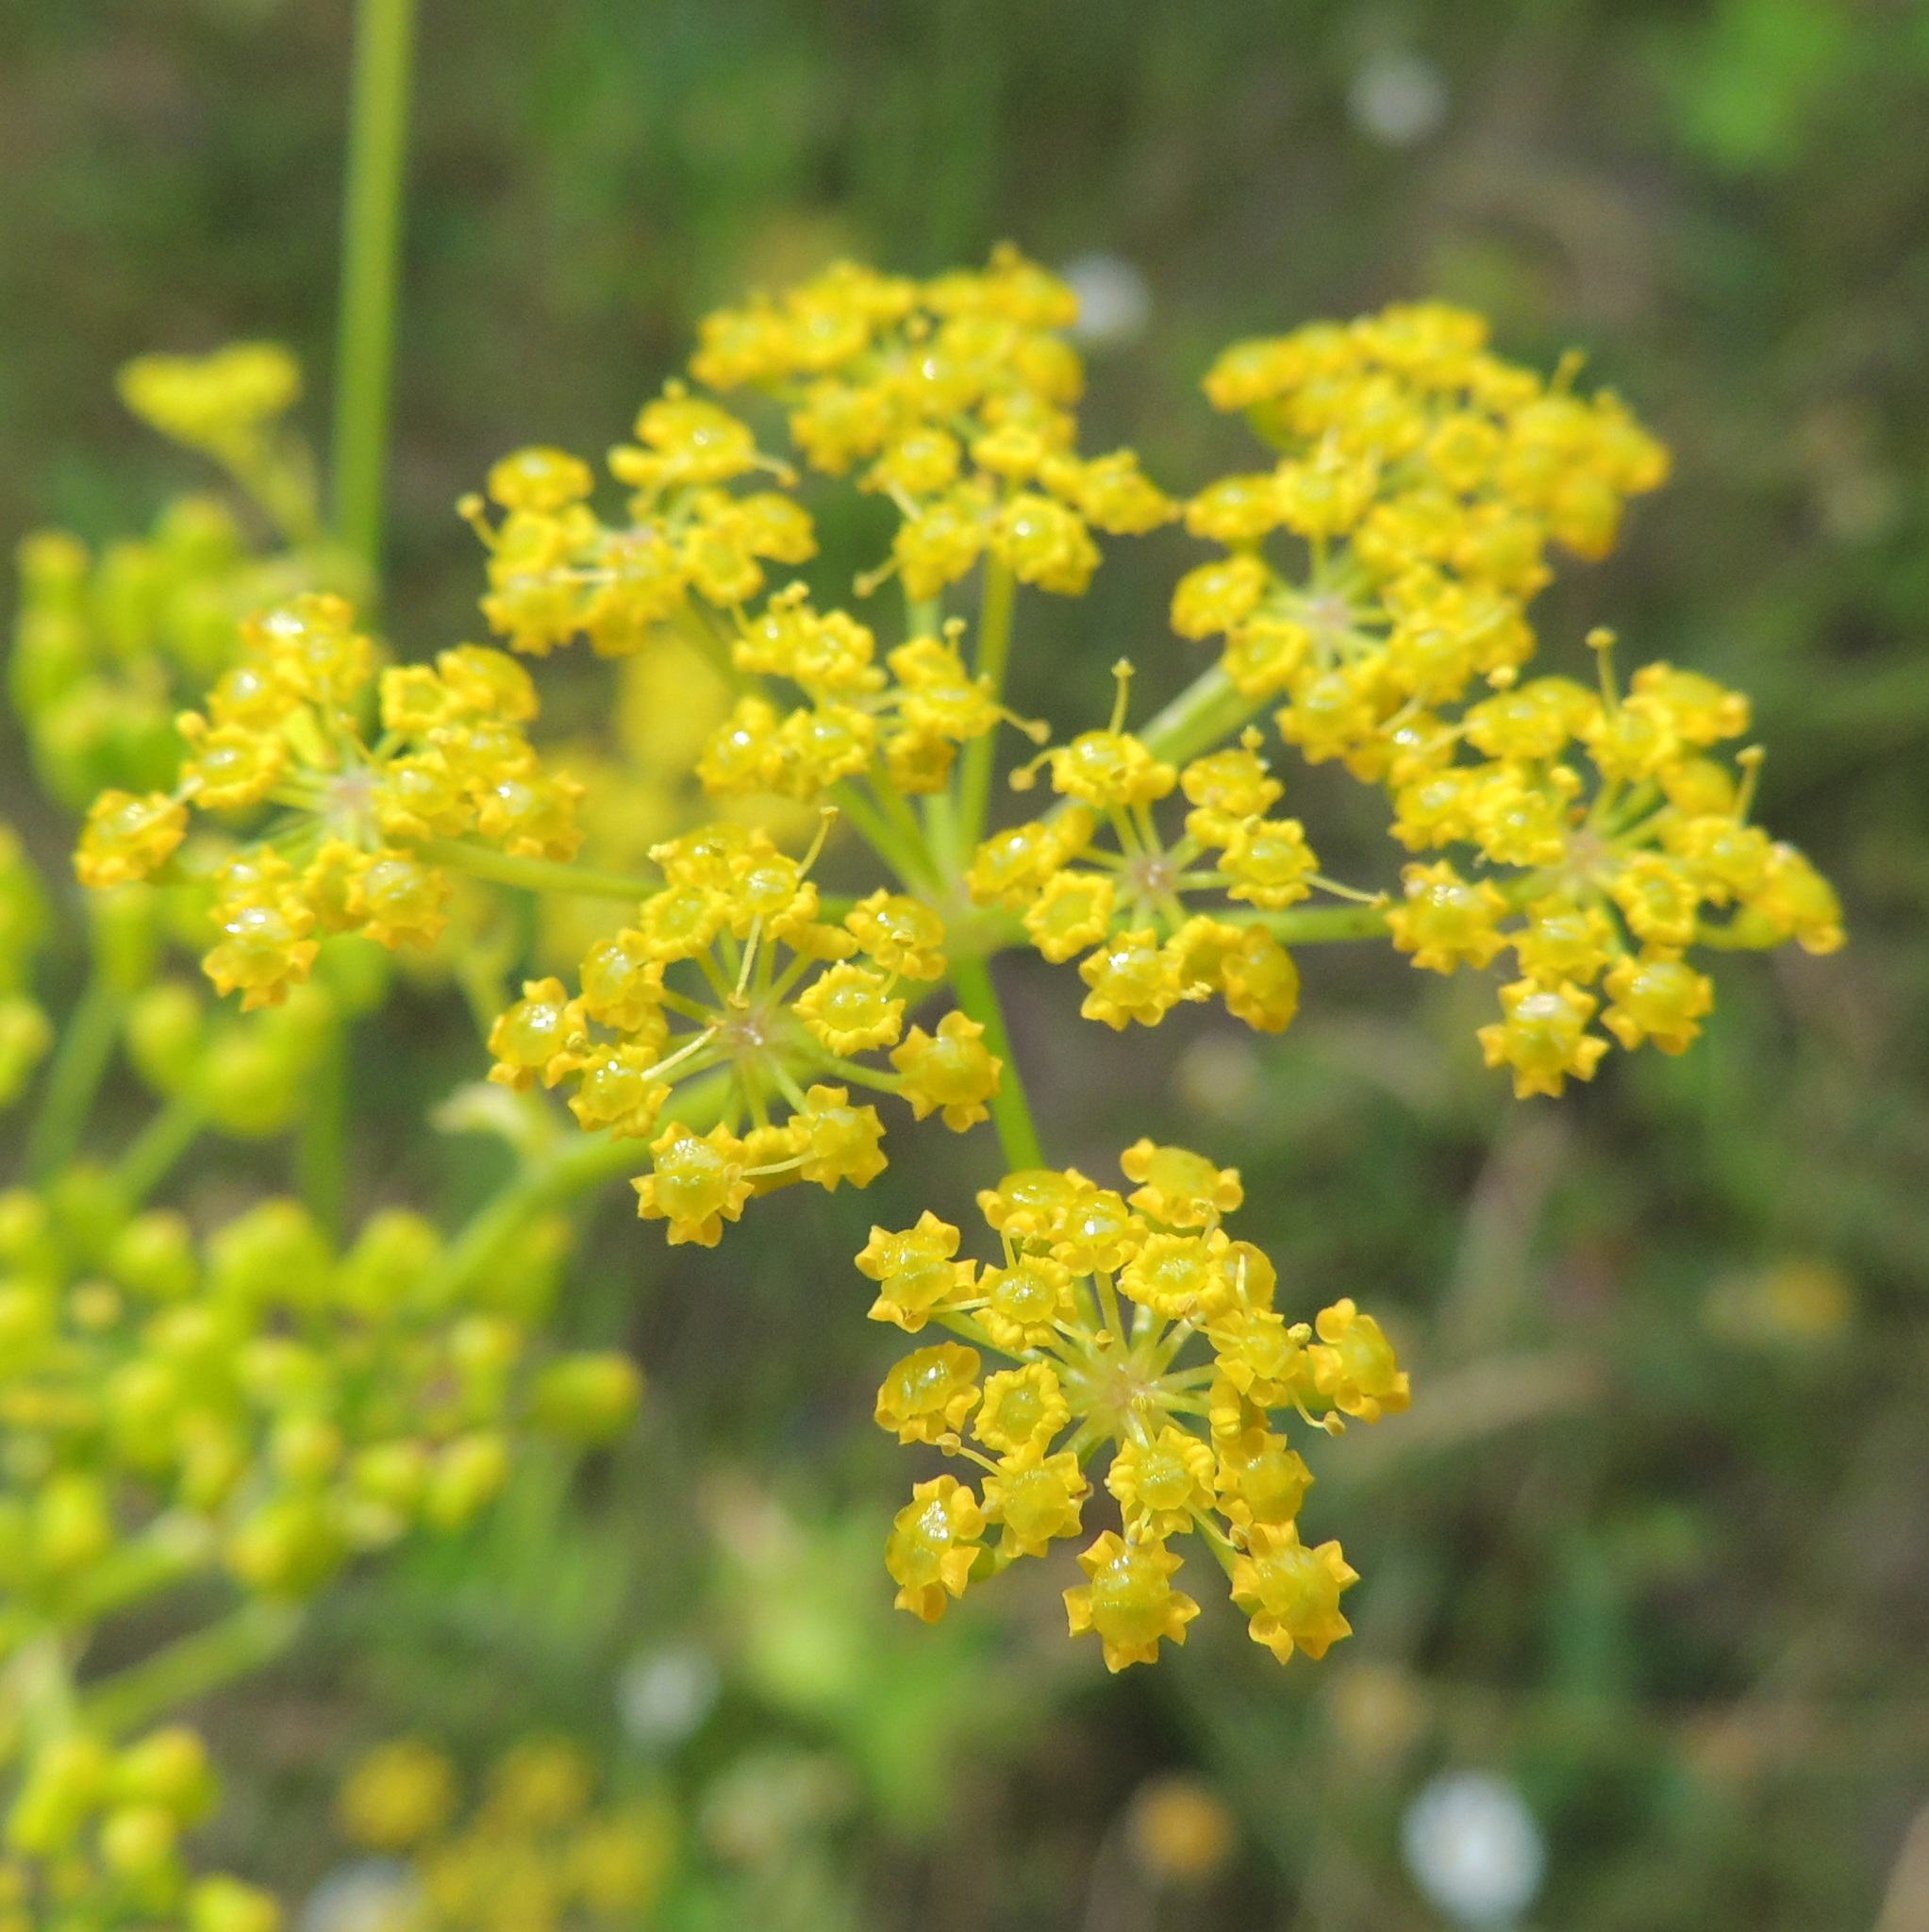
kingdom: Plantae
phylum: Tracheophyta
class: Magnoliopsida
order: Apiales
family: Apiaceae
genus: Pastinaca
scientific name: Pastinaca sativa
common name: Wild parsnip
